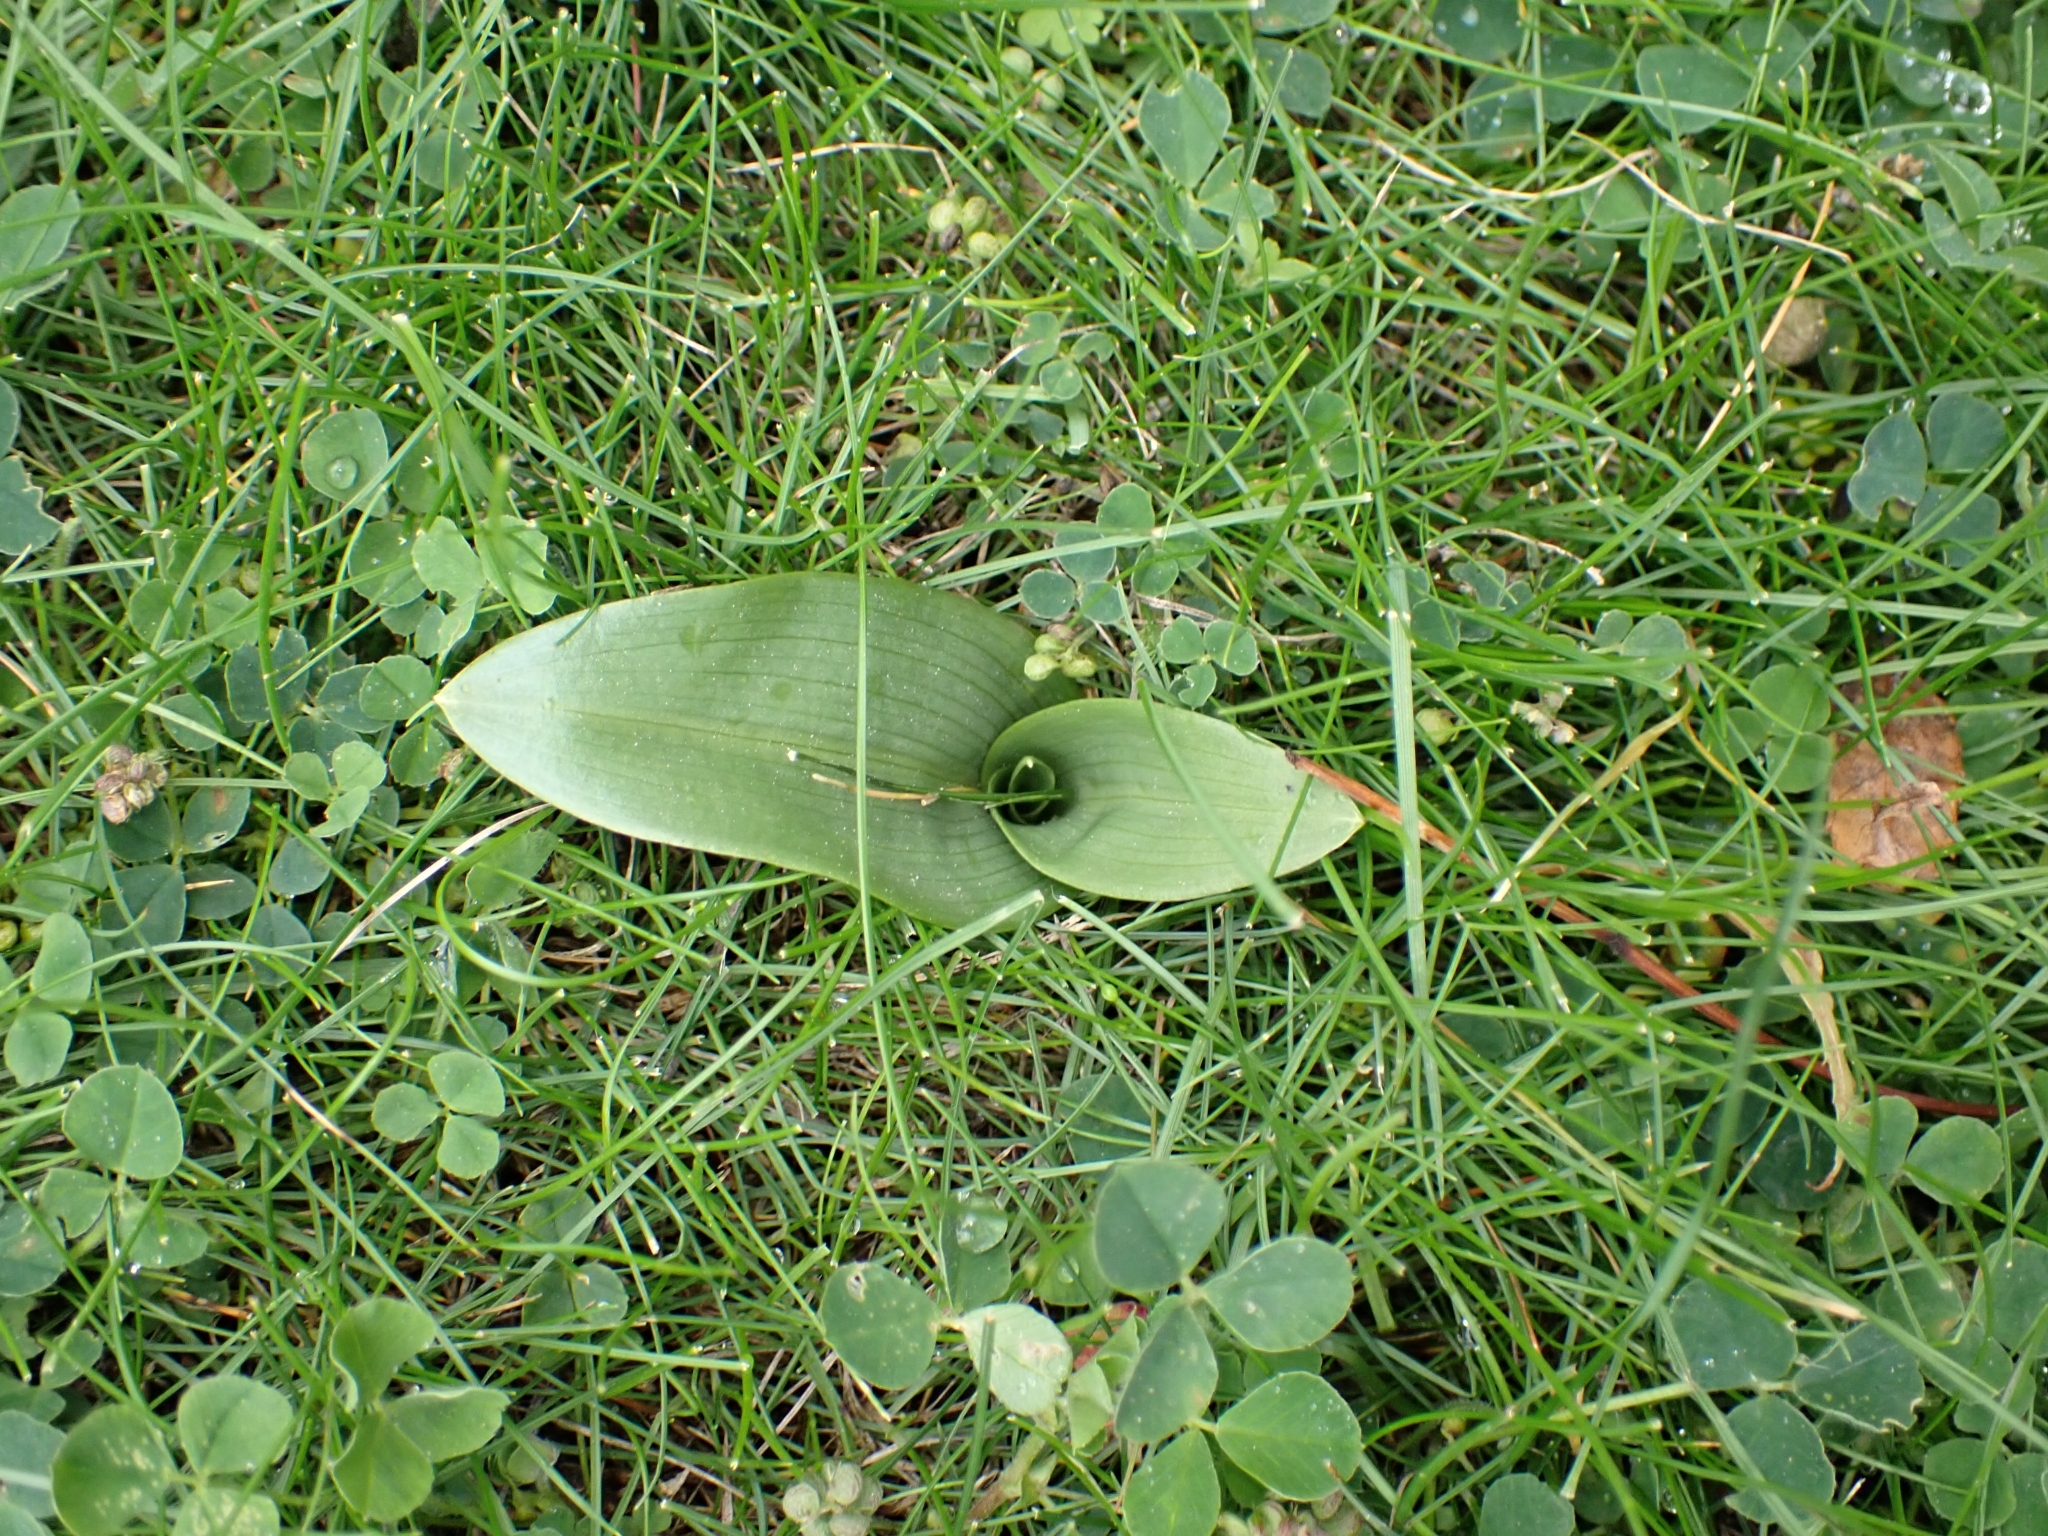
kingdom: Plantae
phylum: Tracheophyta
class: Liliopsida
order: Asparagales
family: Orchidaceae
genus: Ophrys
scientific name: Ophrys apifera
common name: Bee orchid
